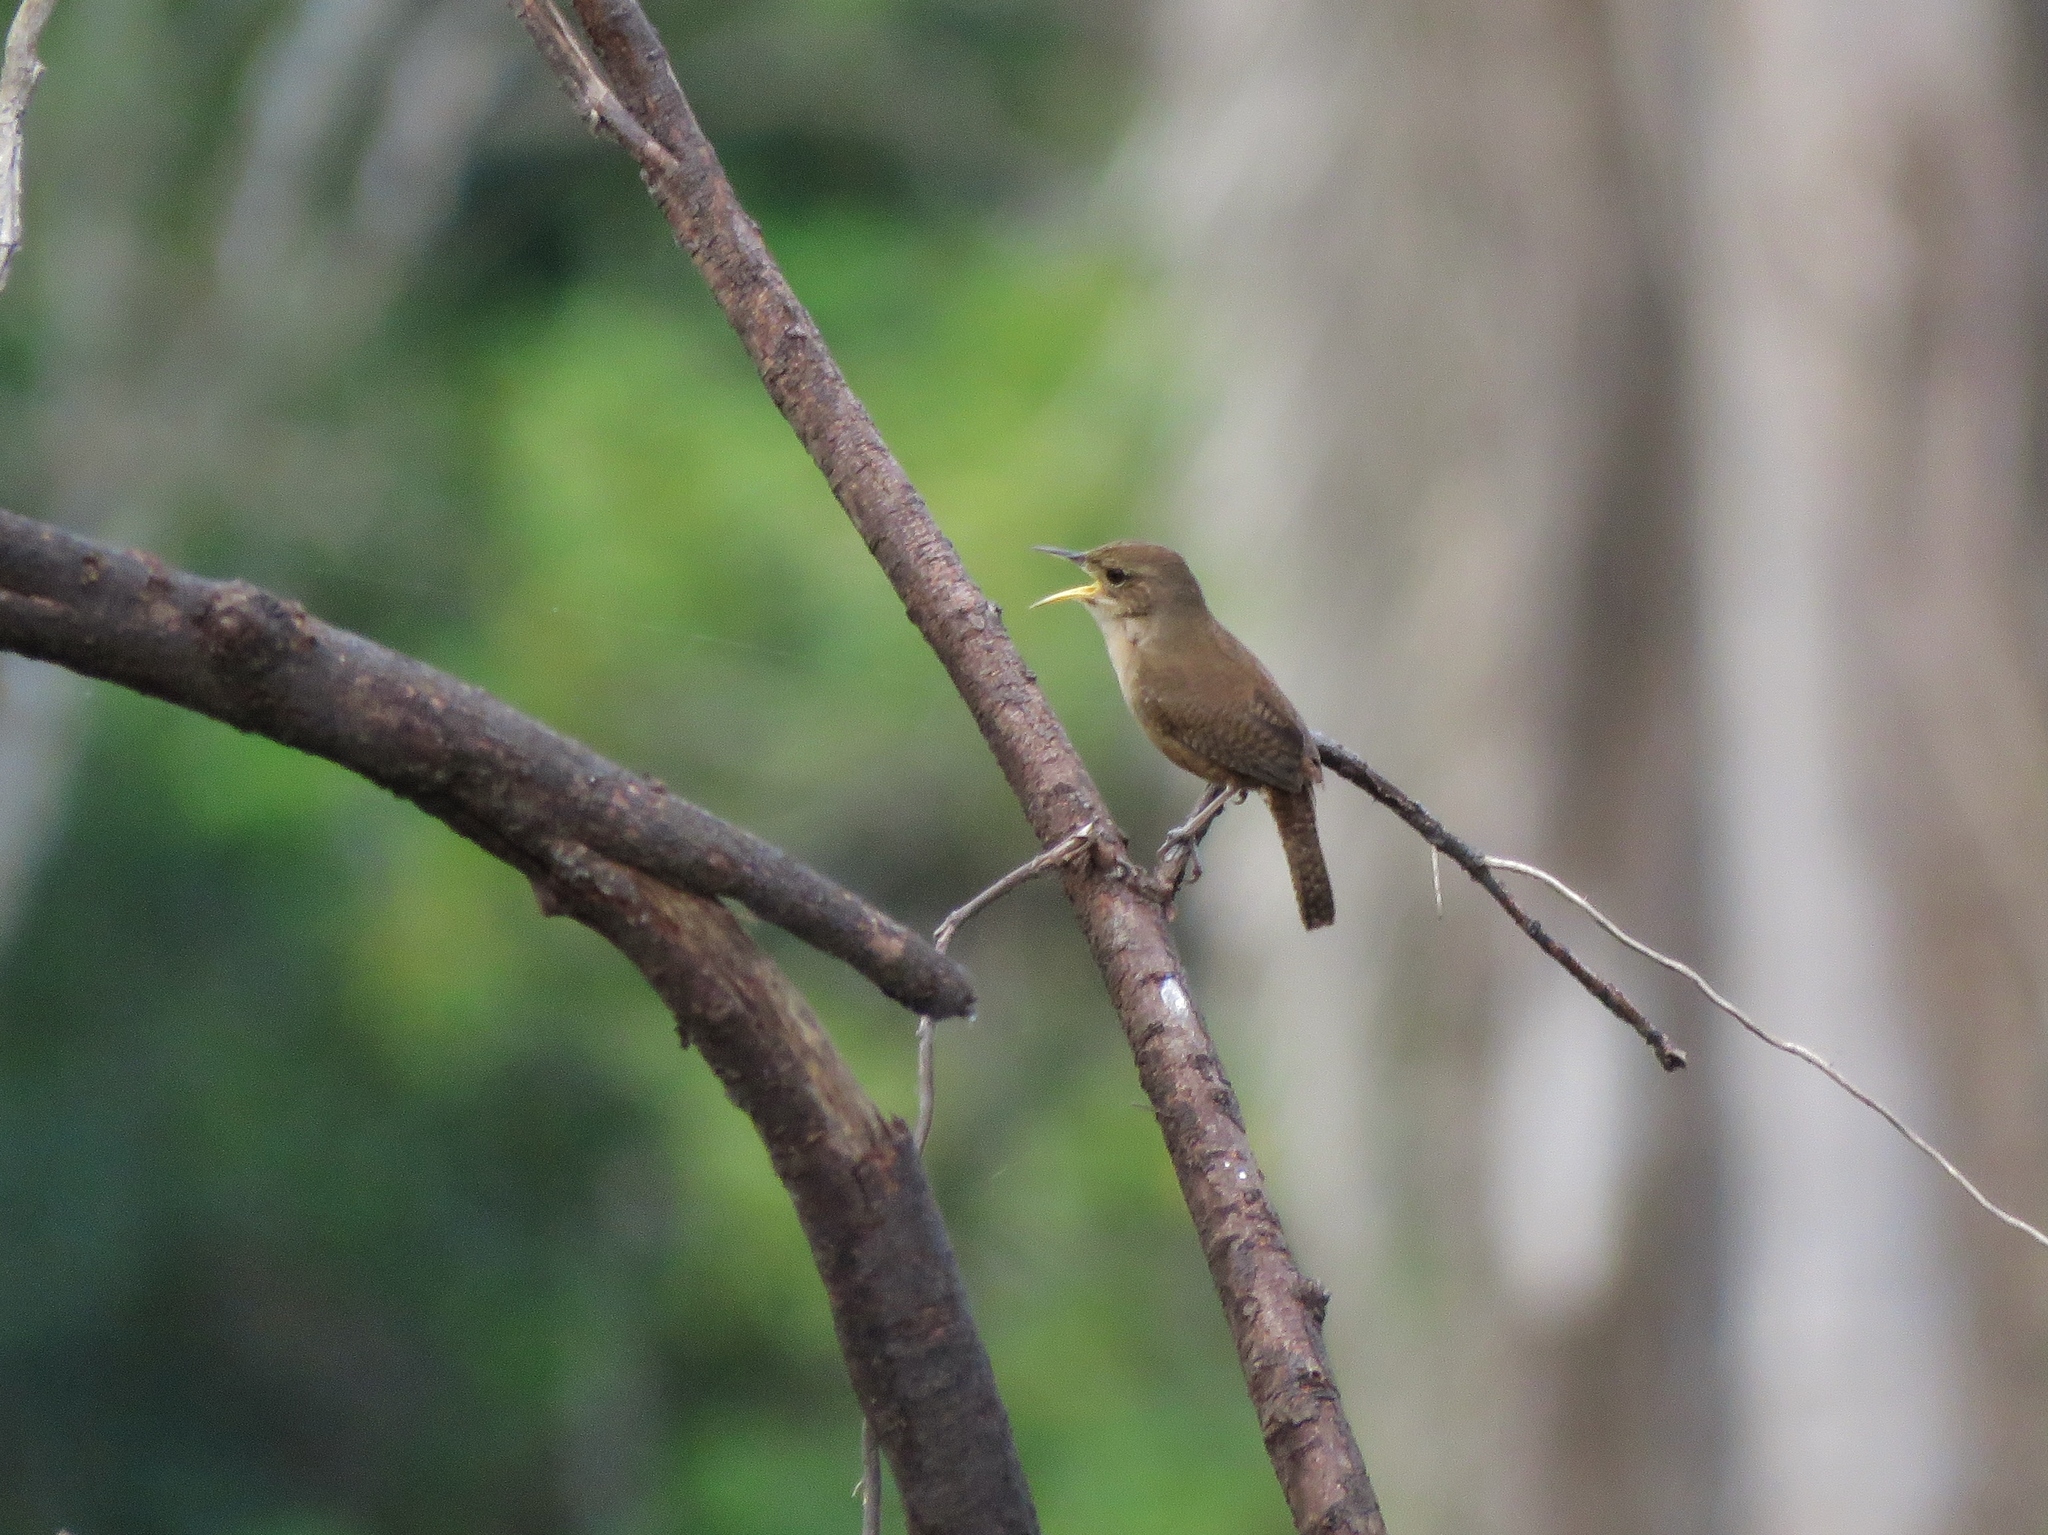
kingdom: Animalia
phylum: Chordata
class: Aves
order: Passeriformes
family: Troglodytidae
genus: Troglodytes
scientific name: Troglodytes aedon
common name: House wren
